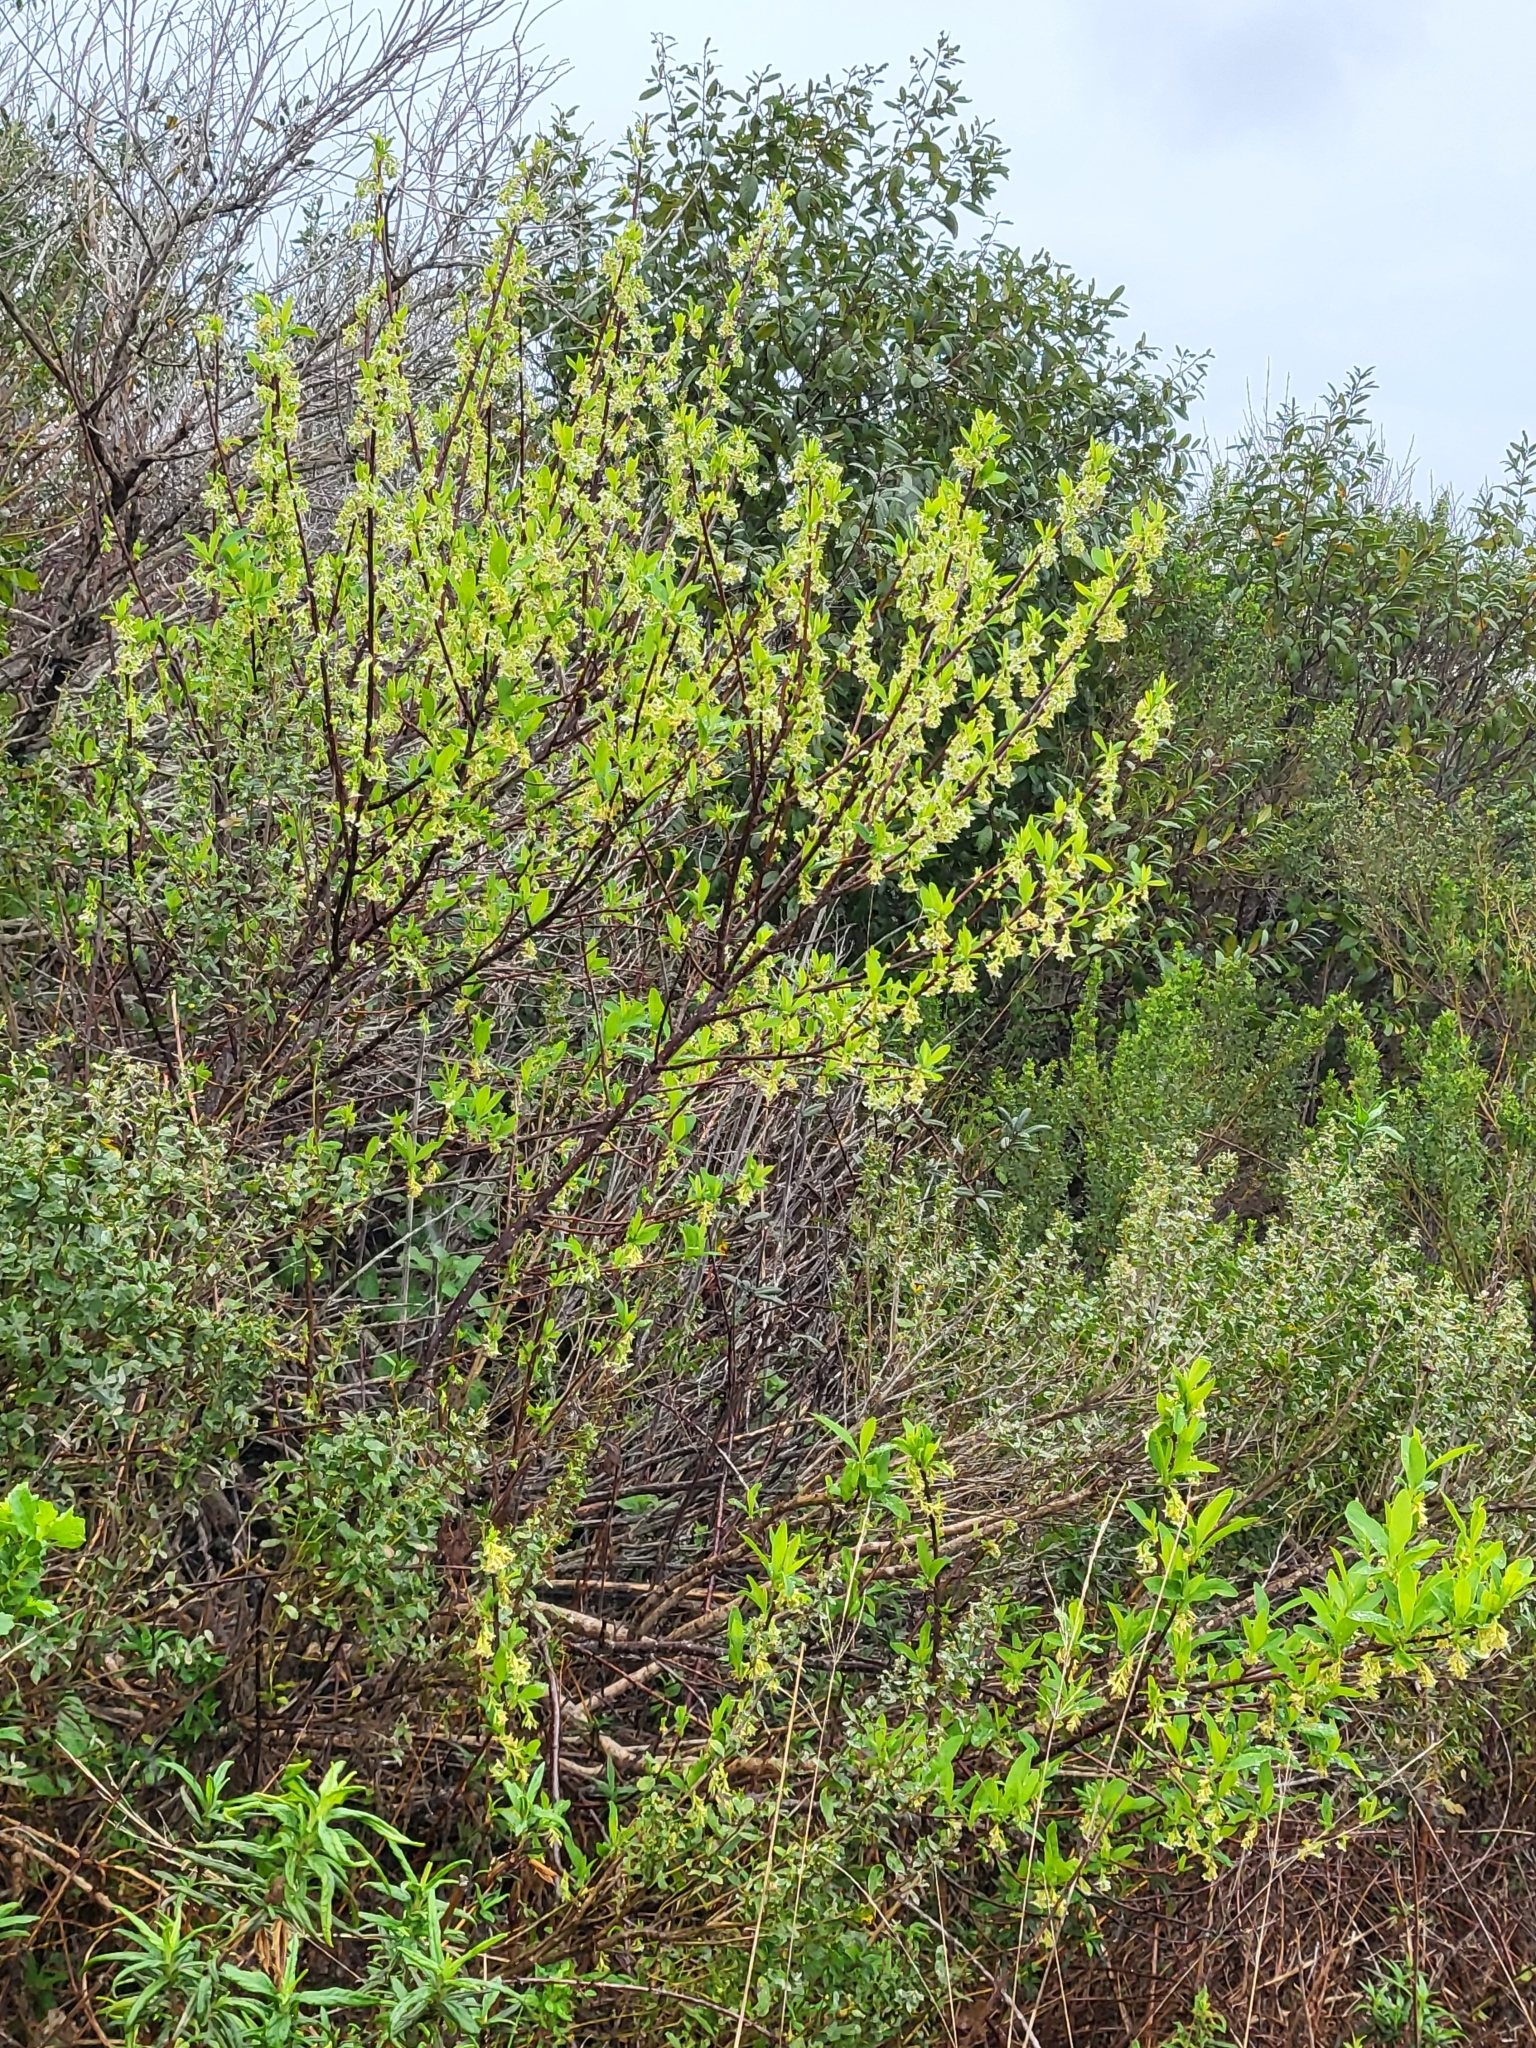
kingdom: Plantae
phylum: Tracheophyta
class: Magnoliopsida
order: Rosales
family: Rosaceae
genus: Oemleria
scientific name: Oemleria cerasiformis
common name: Osoberry
